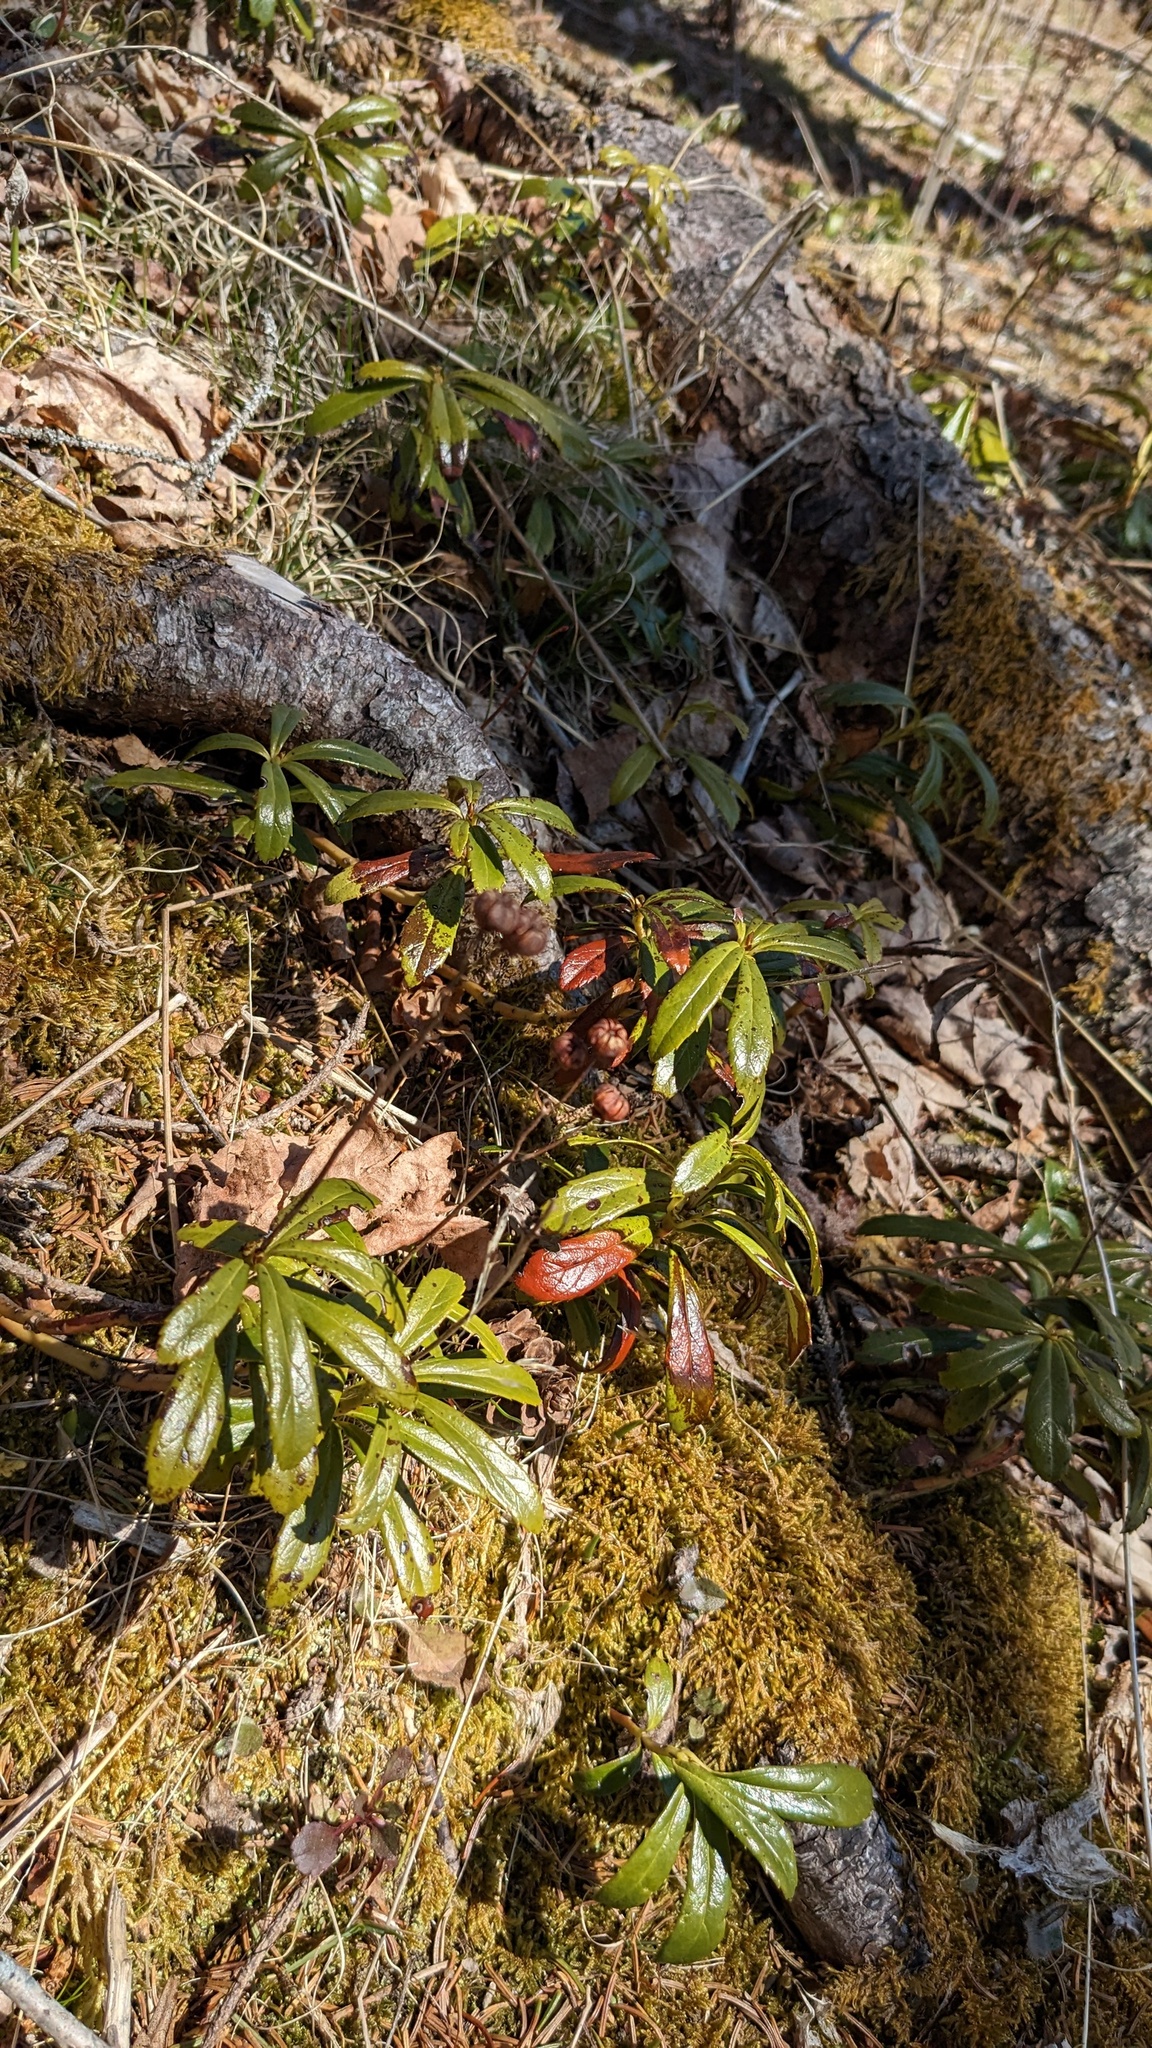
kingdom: Plantae
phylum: Tracheophyta
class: Magnoliopsida
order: Ericales
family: Ericaceae
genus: Chimaphila
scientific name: Chimaphila umbellata
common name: Pipsissewa
